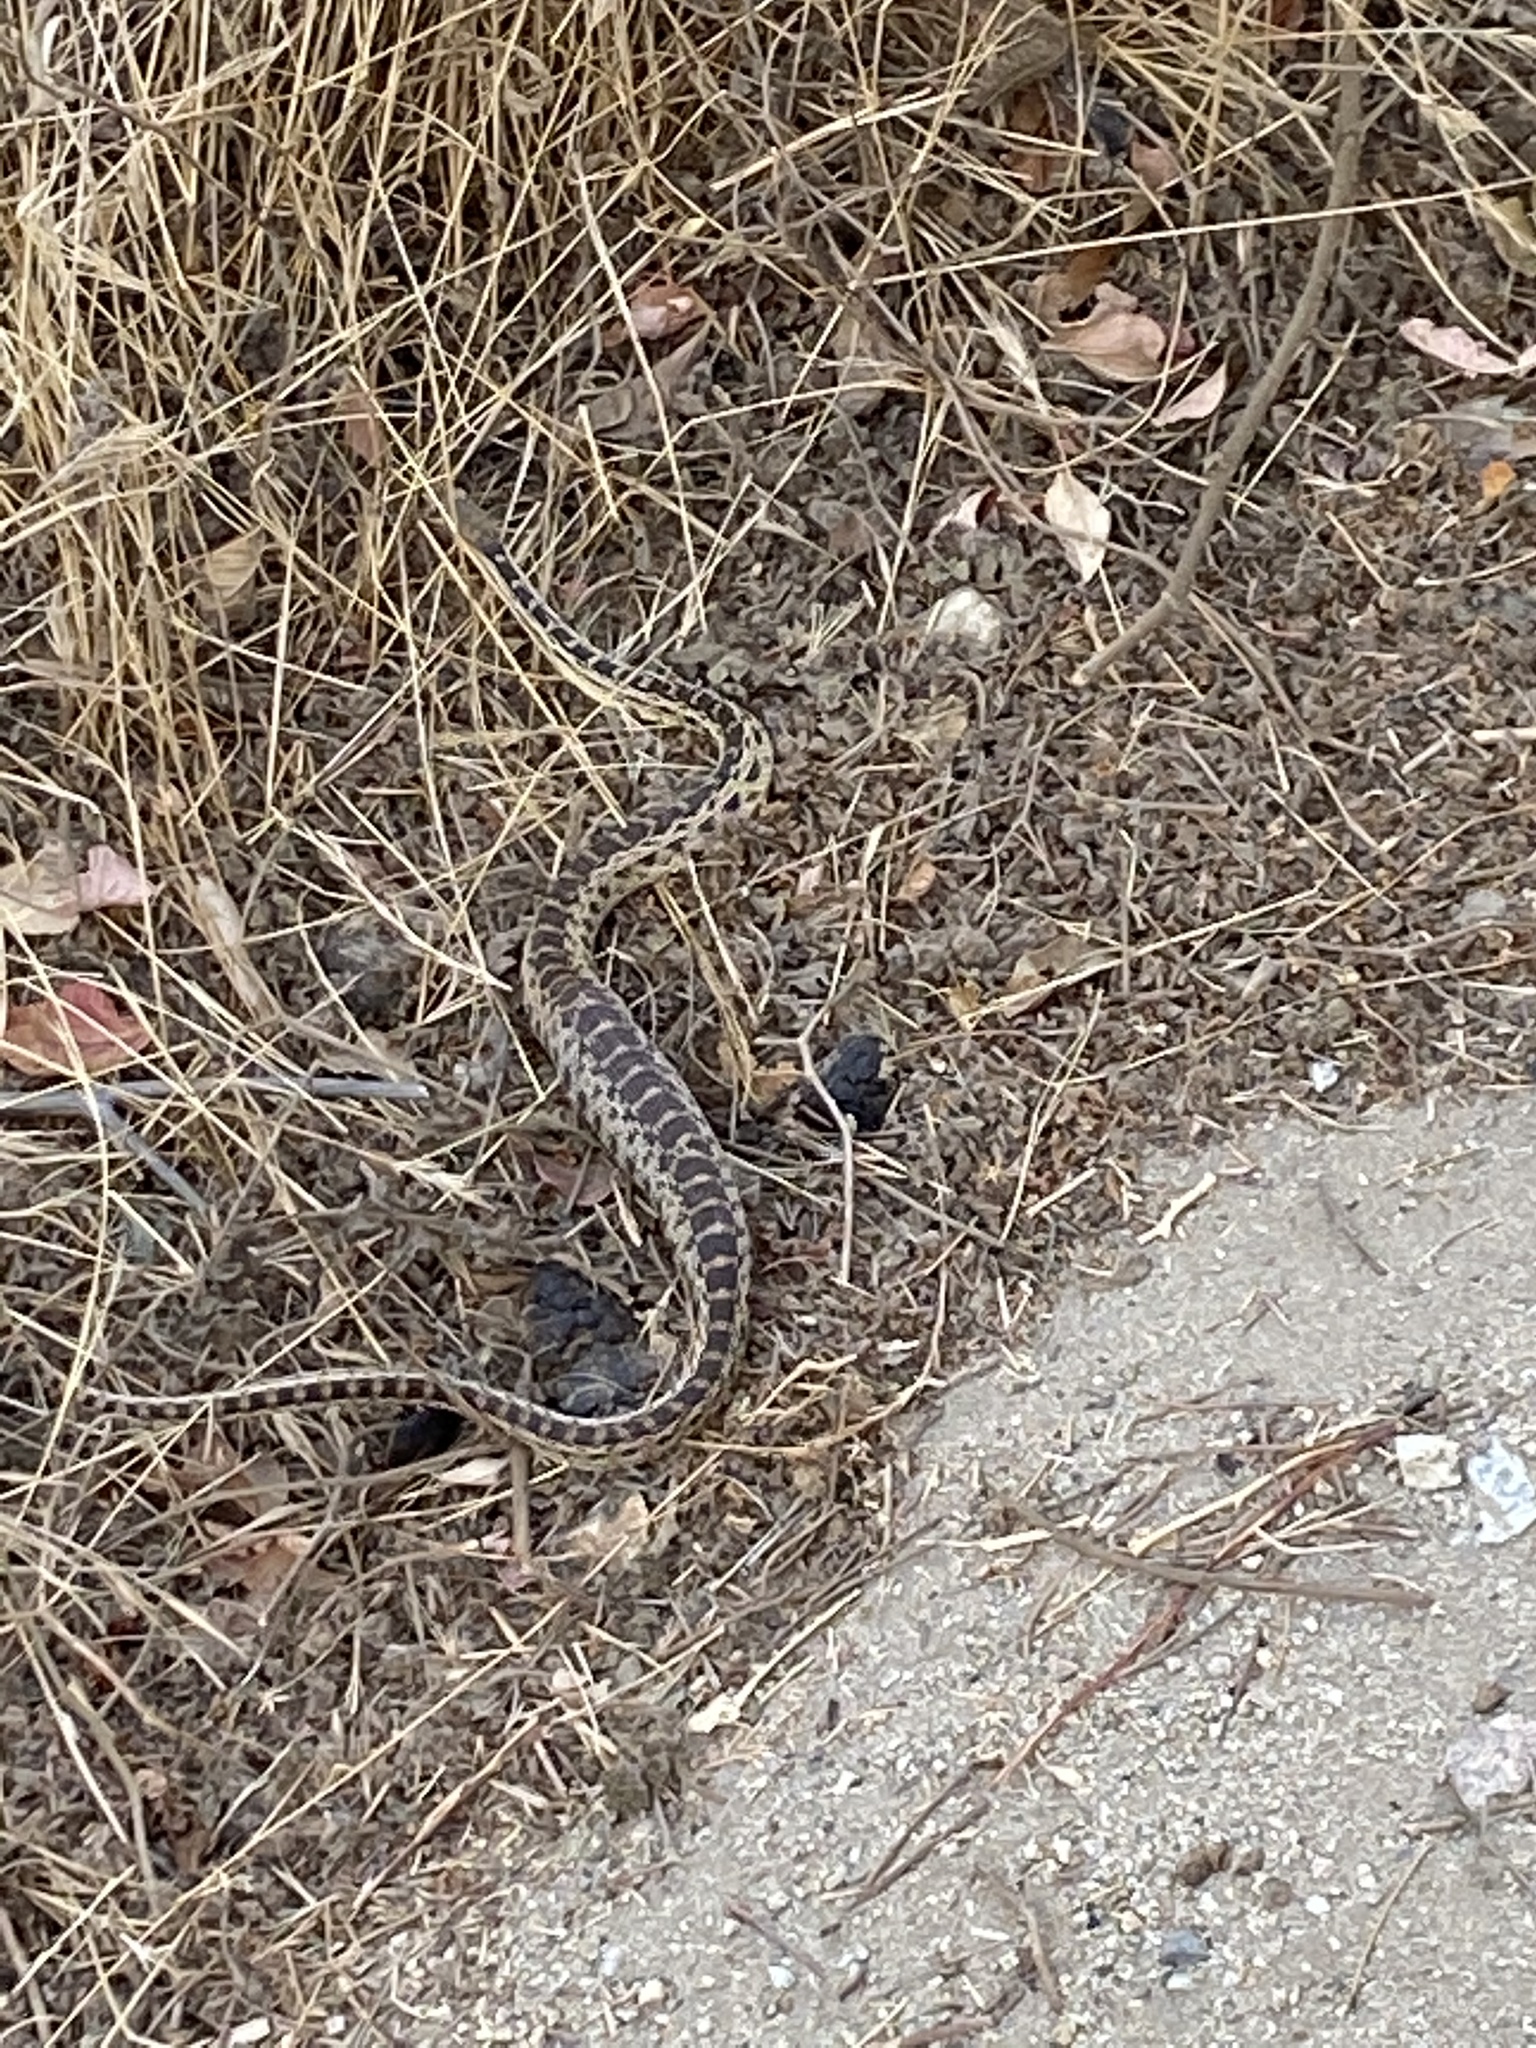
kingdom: Animalia
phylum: Chordata
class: Squamata
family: Colubridae
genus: Pituophis
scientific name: Pituophis catenifer
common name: Gopher snake
